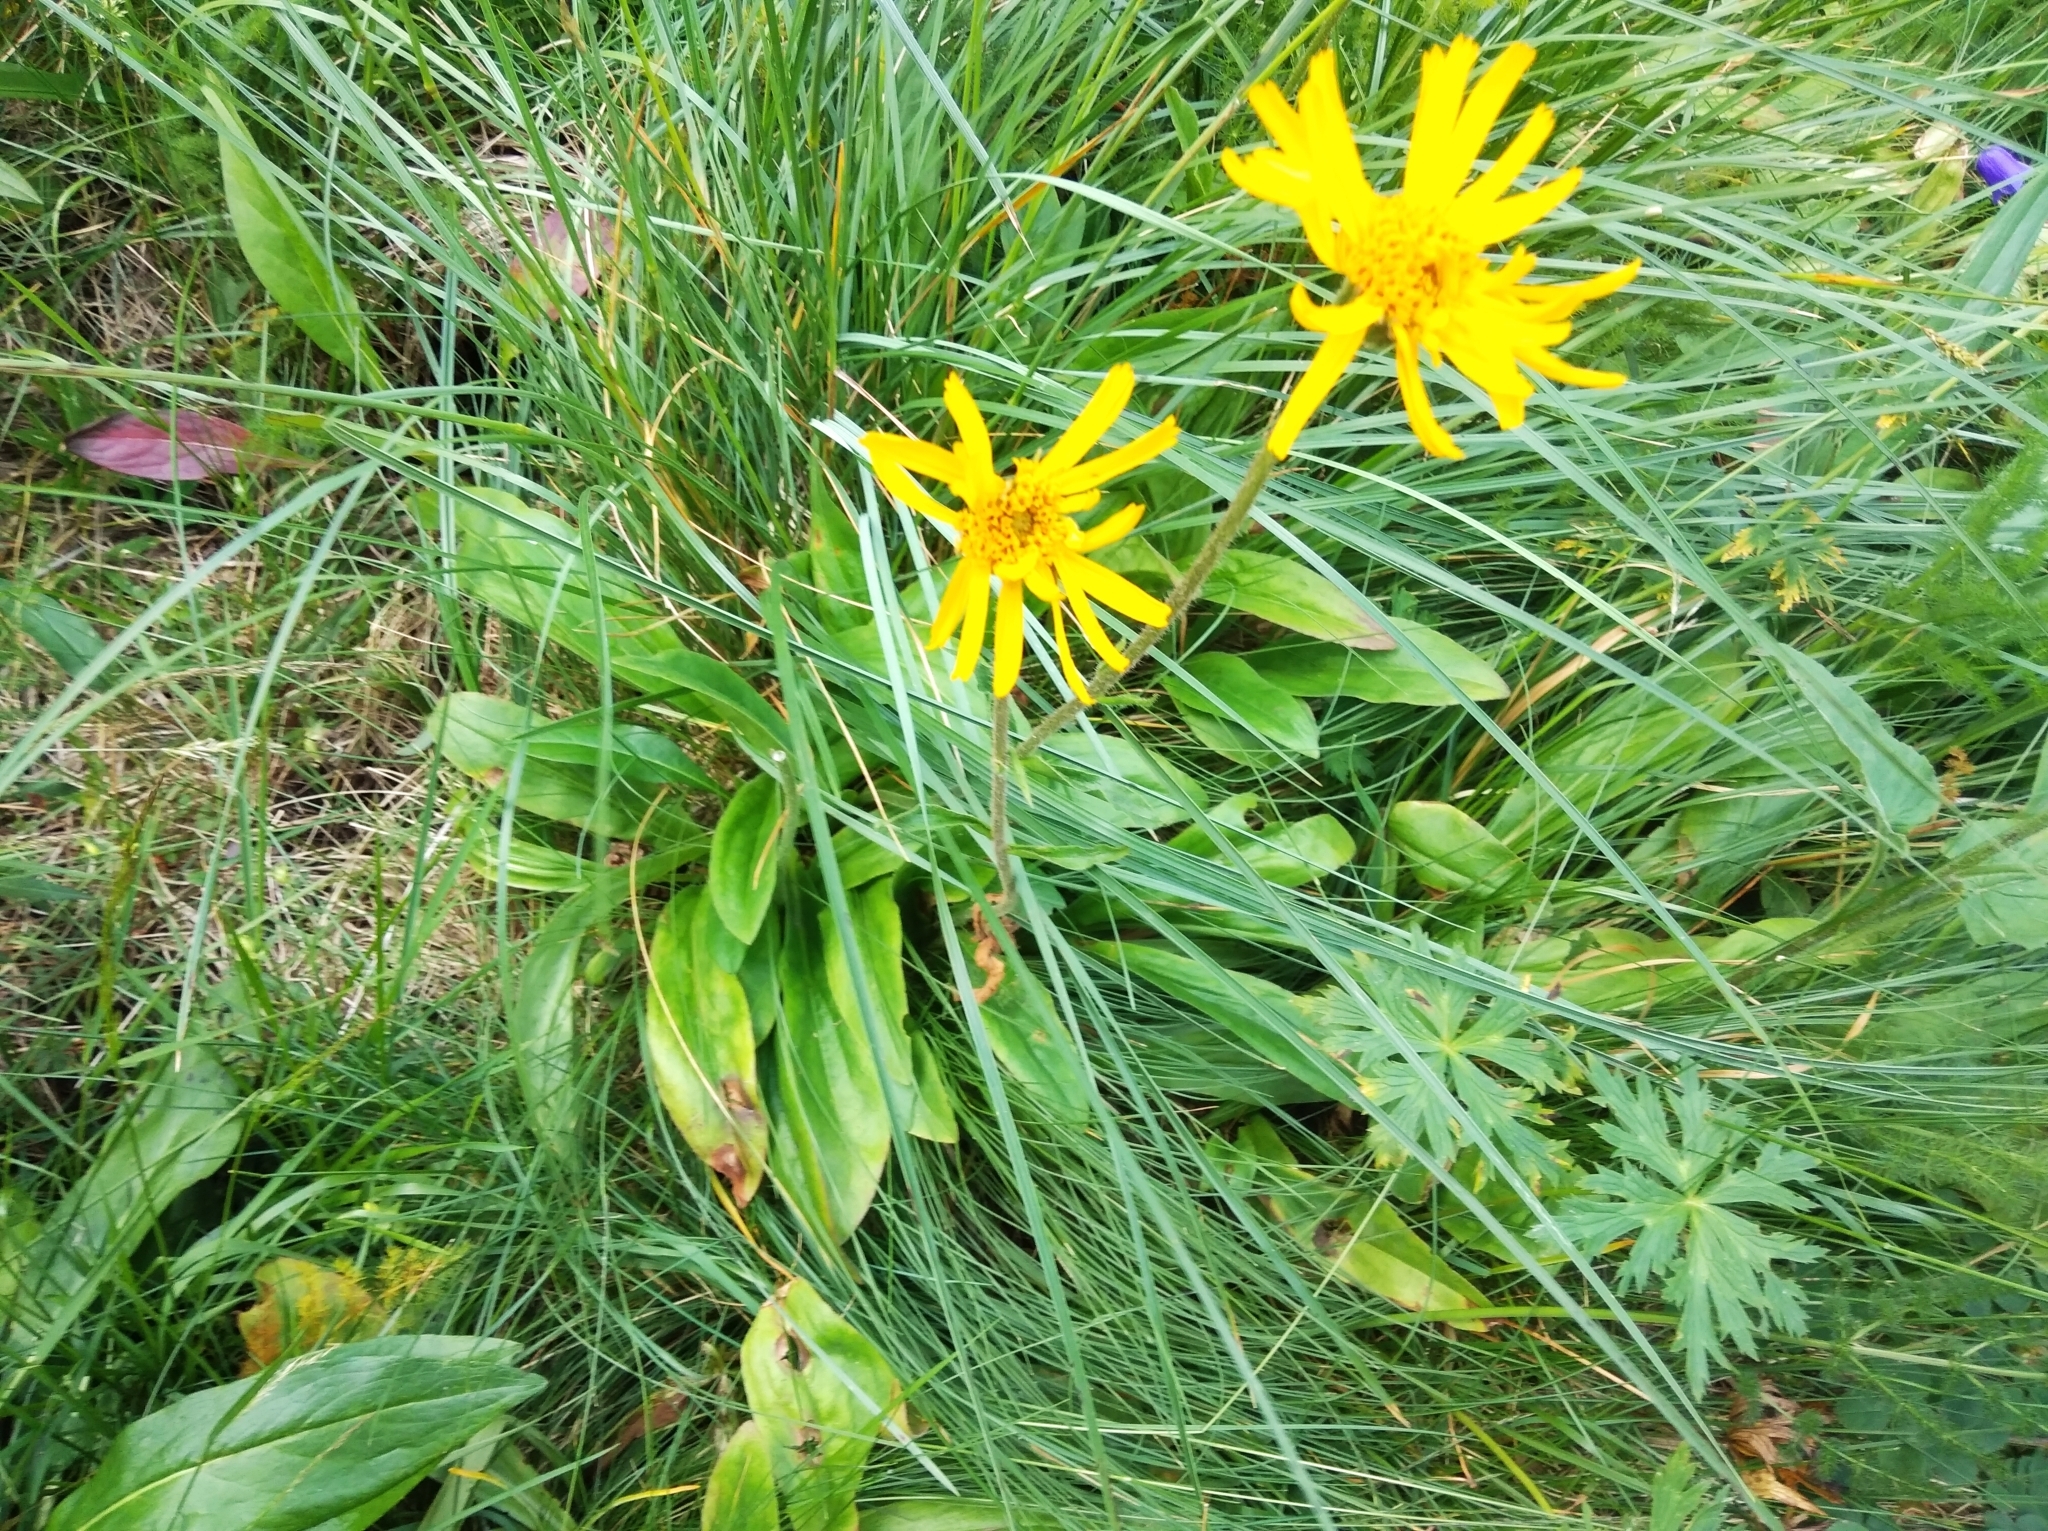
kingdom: Plantae
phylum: Tracheophyta
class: Magnoliopsida
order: Asterales
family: Asteraceae
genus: Arnica
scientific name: Arnica montana
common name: Leopard's bane
